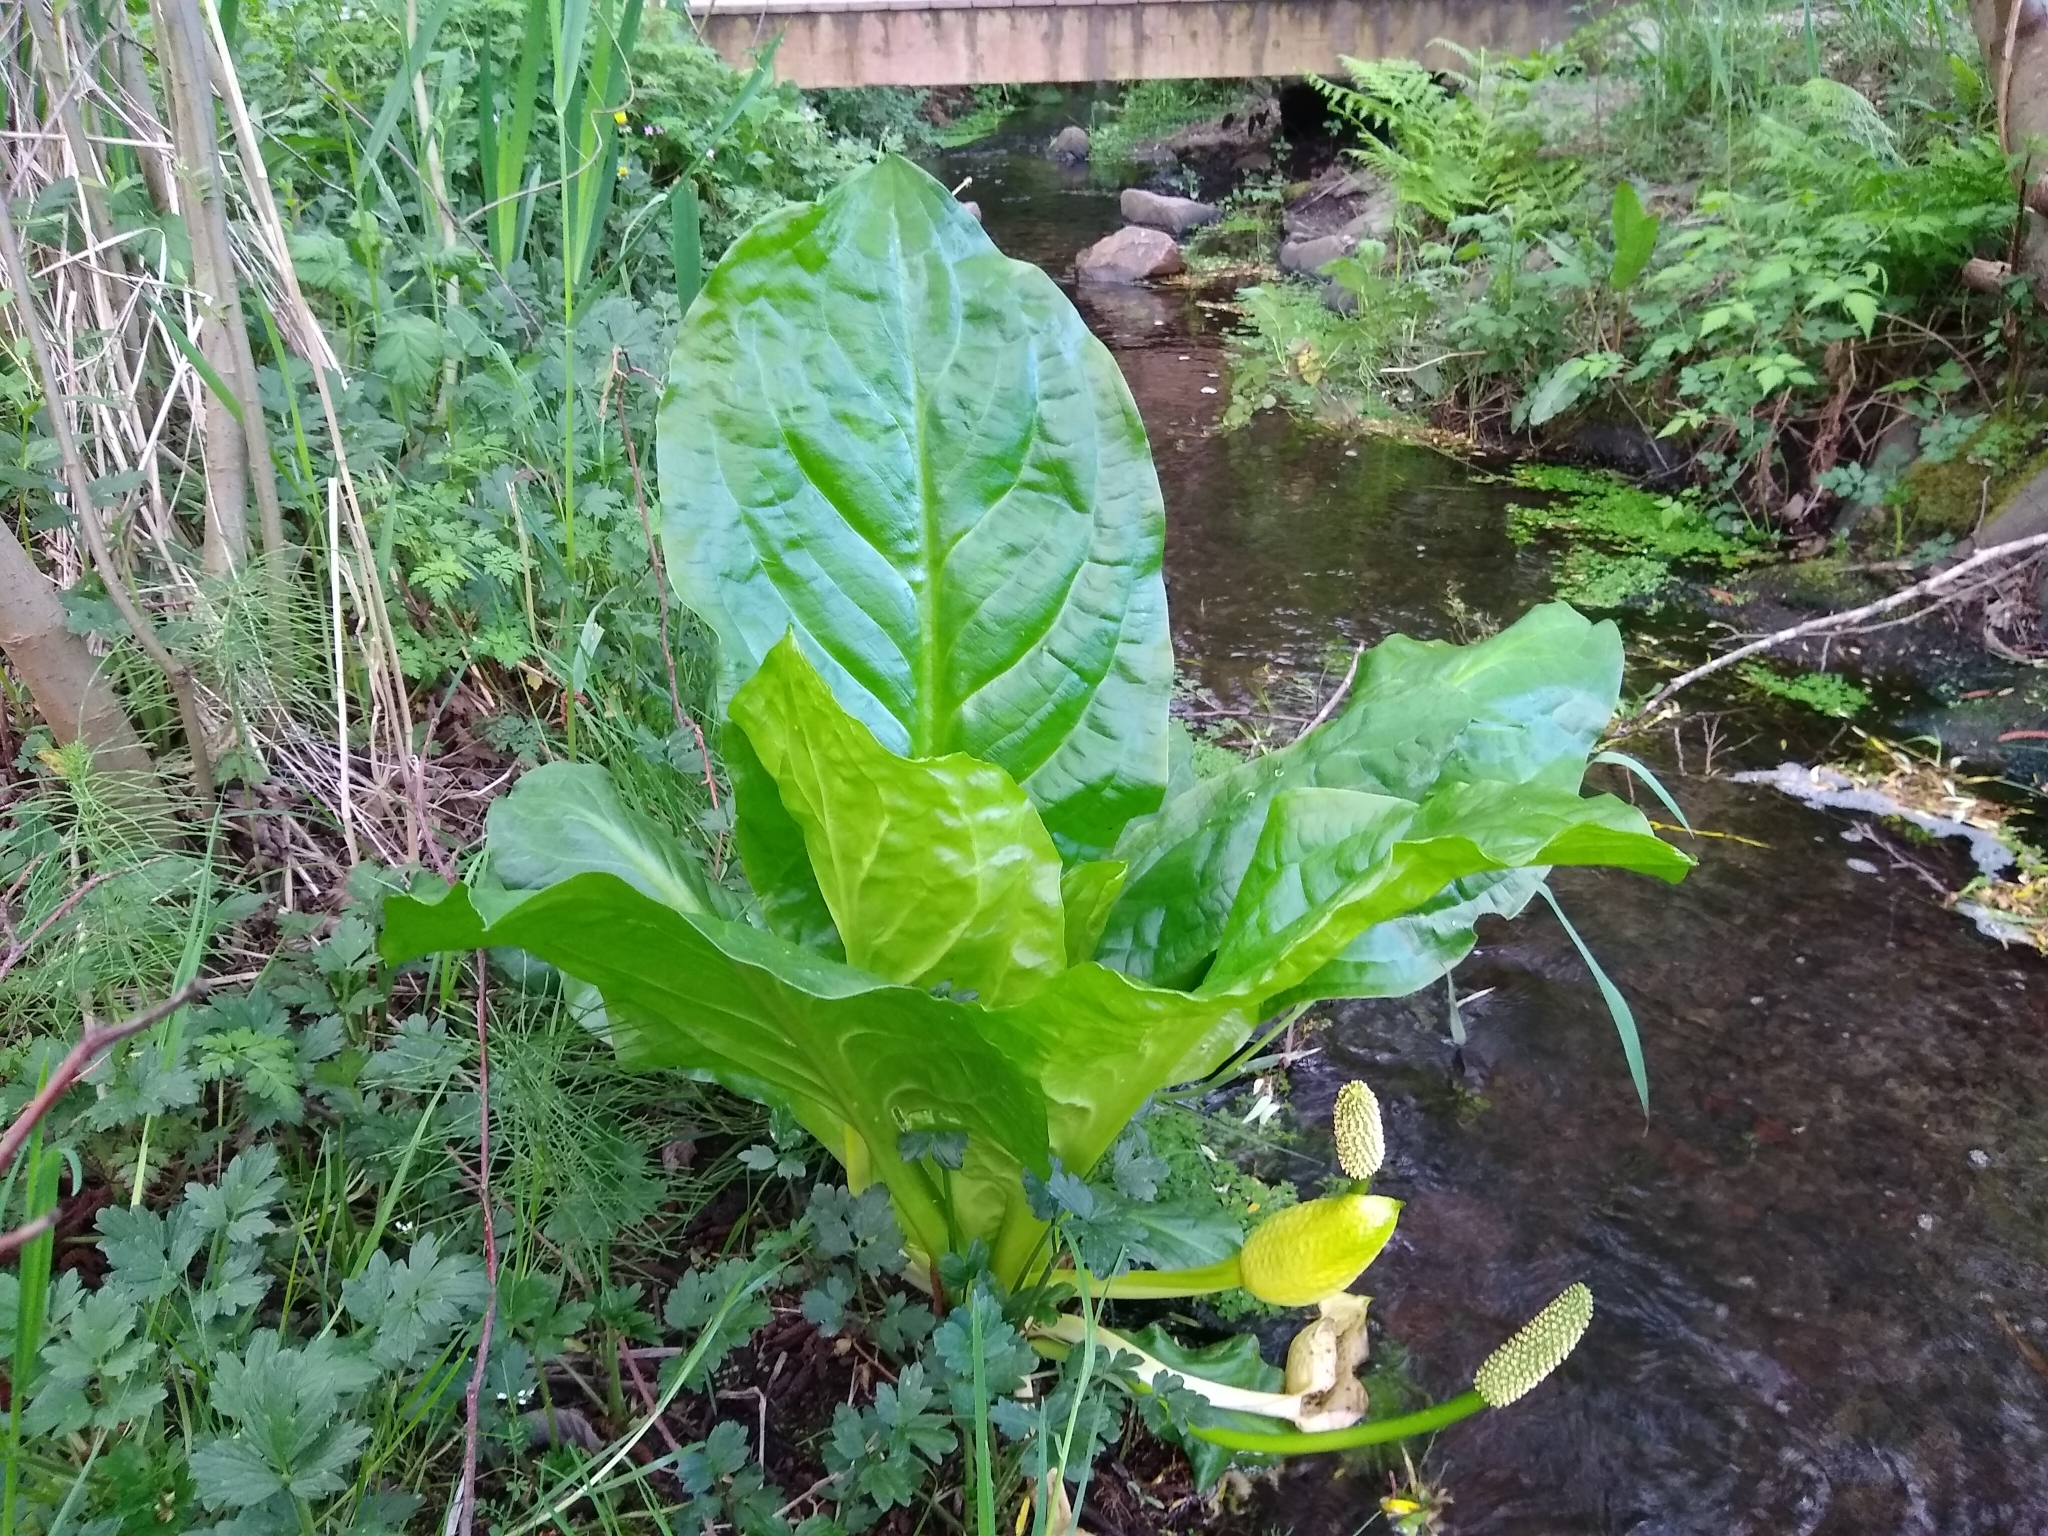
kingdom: Plantae
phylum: Tracheophyta
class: Liliopsida
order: Alismatales
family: Araceae
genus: Lysichiton
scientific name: Lysichiton americanus
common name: American skunk cabbage
